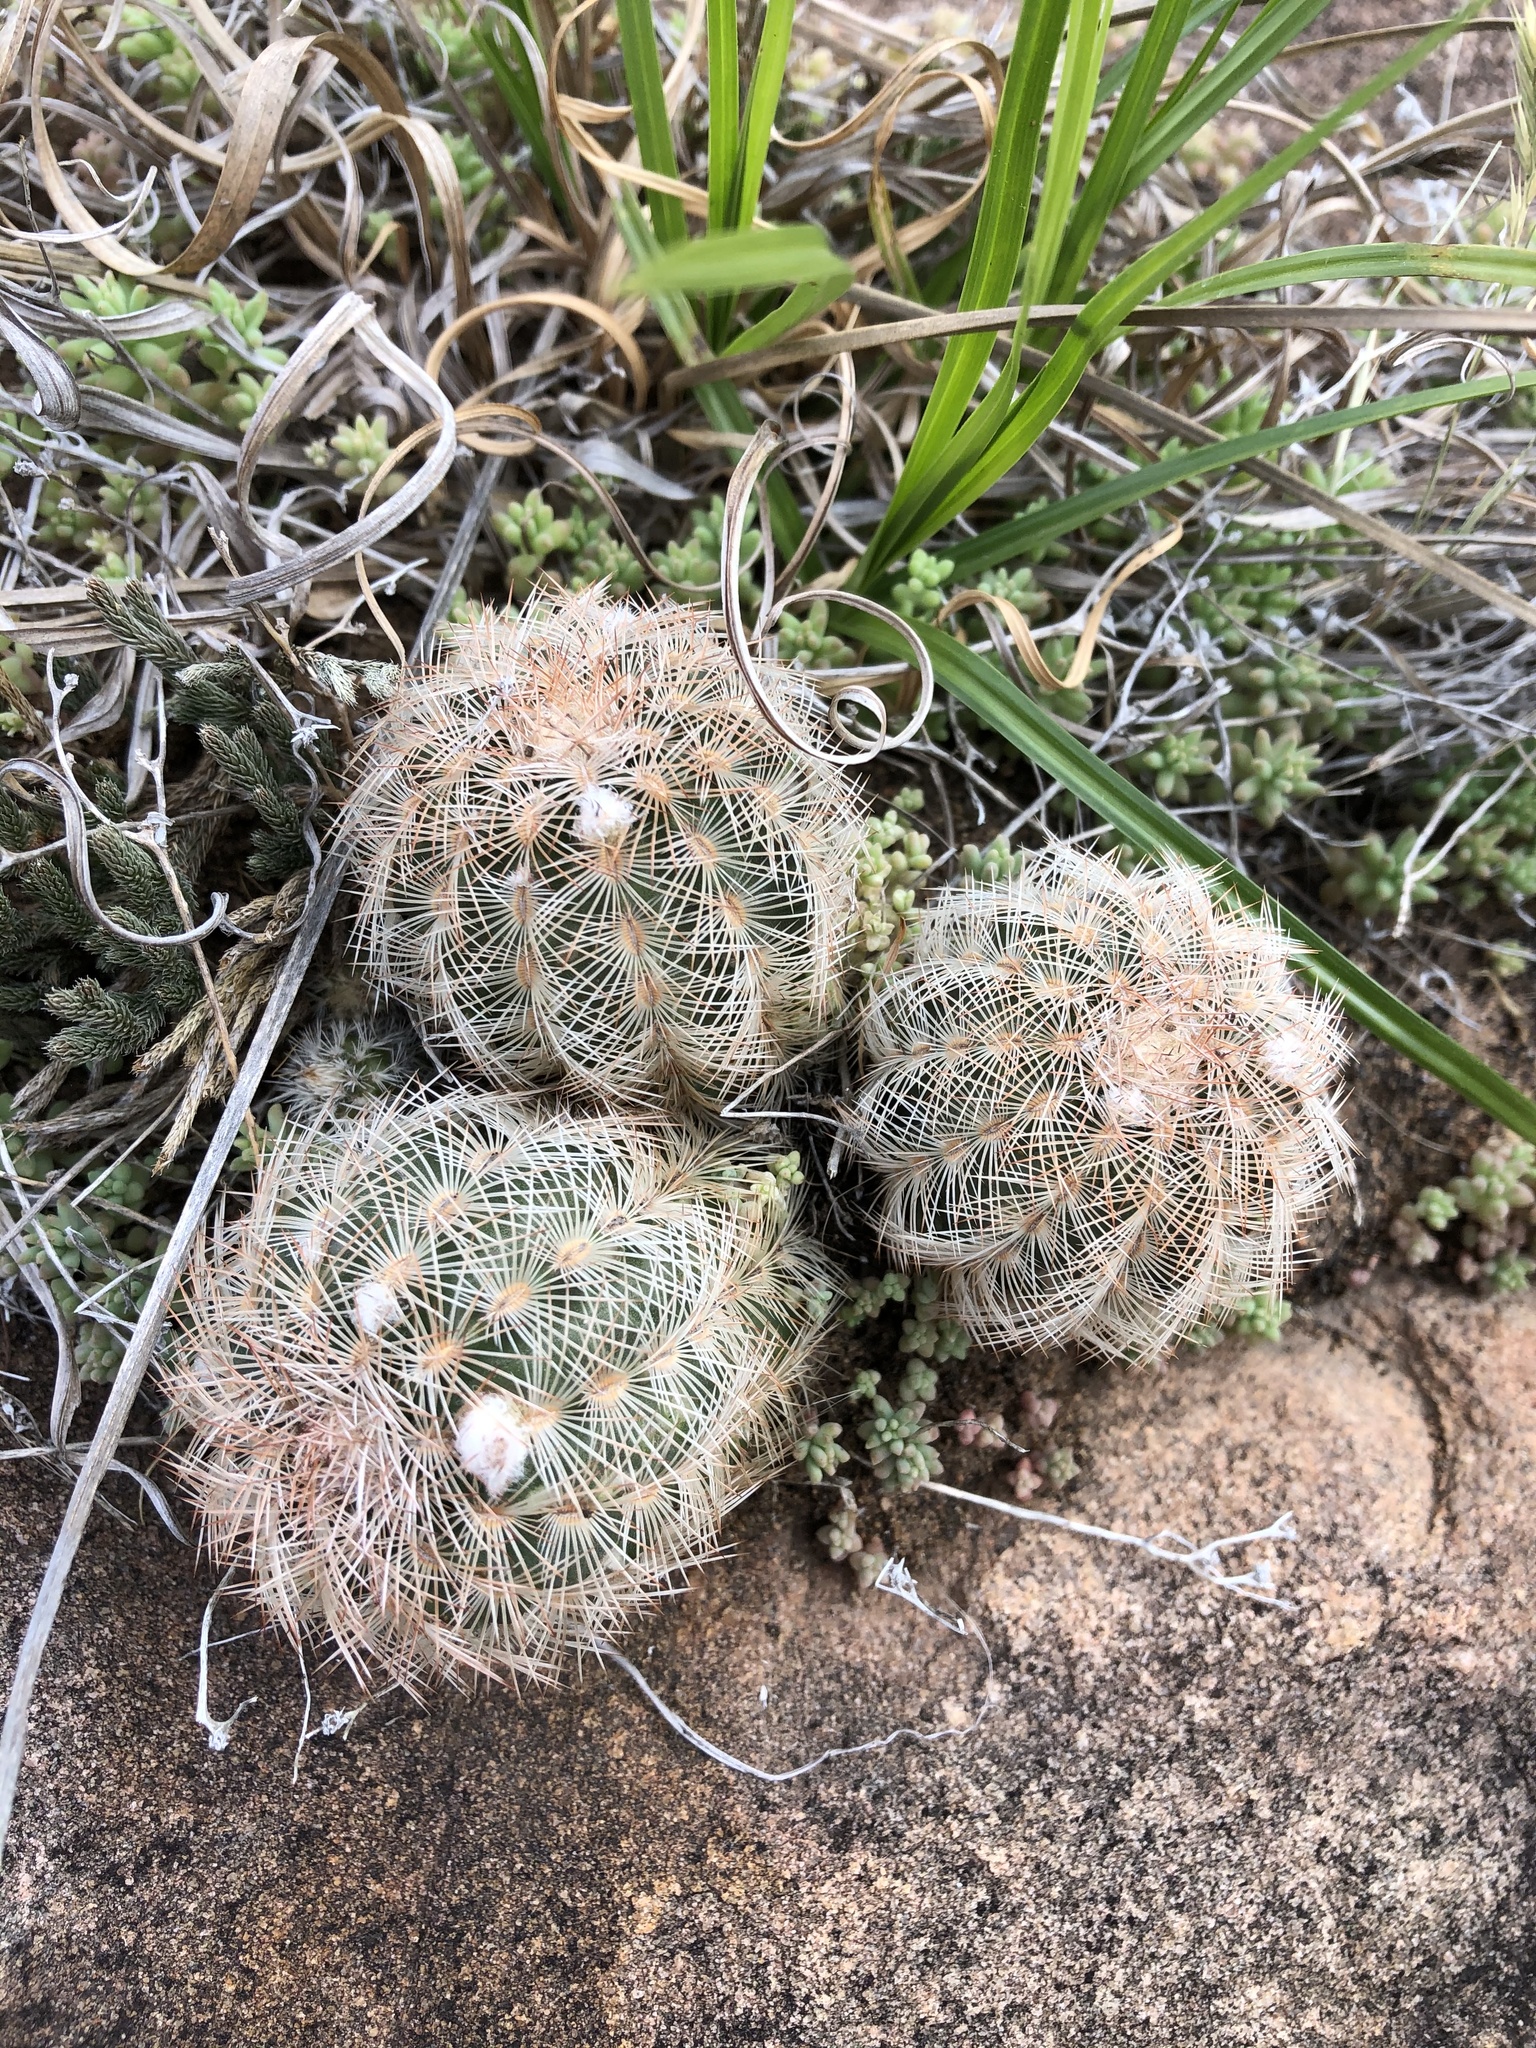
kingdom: Plantae
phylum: Tracheophyta
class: Magnoliopsida
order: Caryophyllales
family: Cactaceae
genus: Echinocereus
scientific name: Echinocereus reichenbachii
